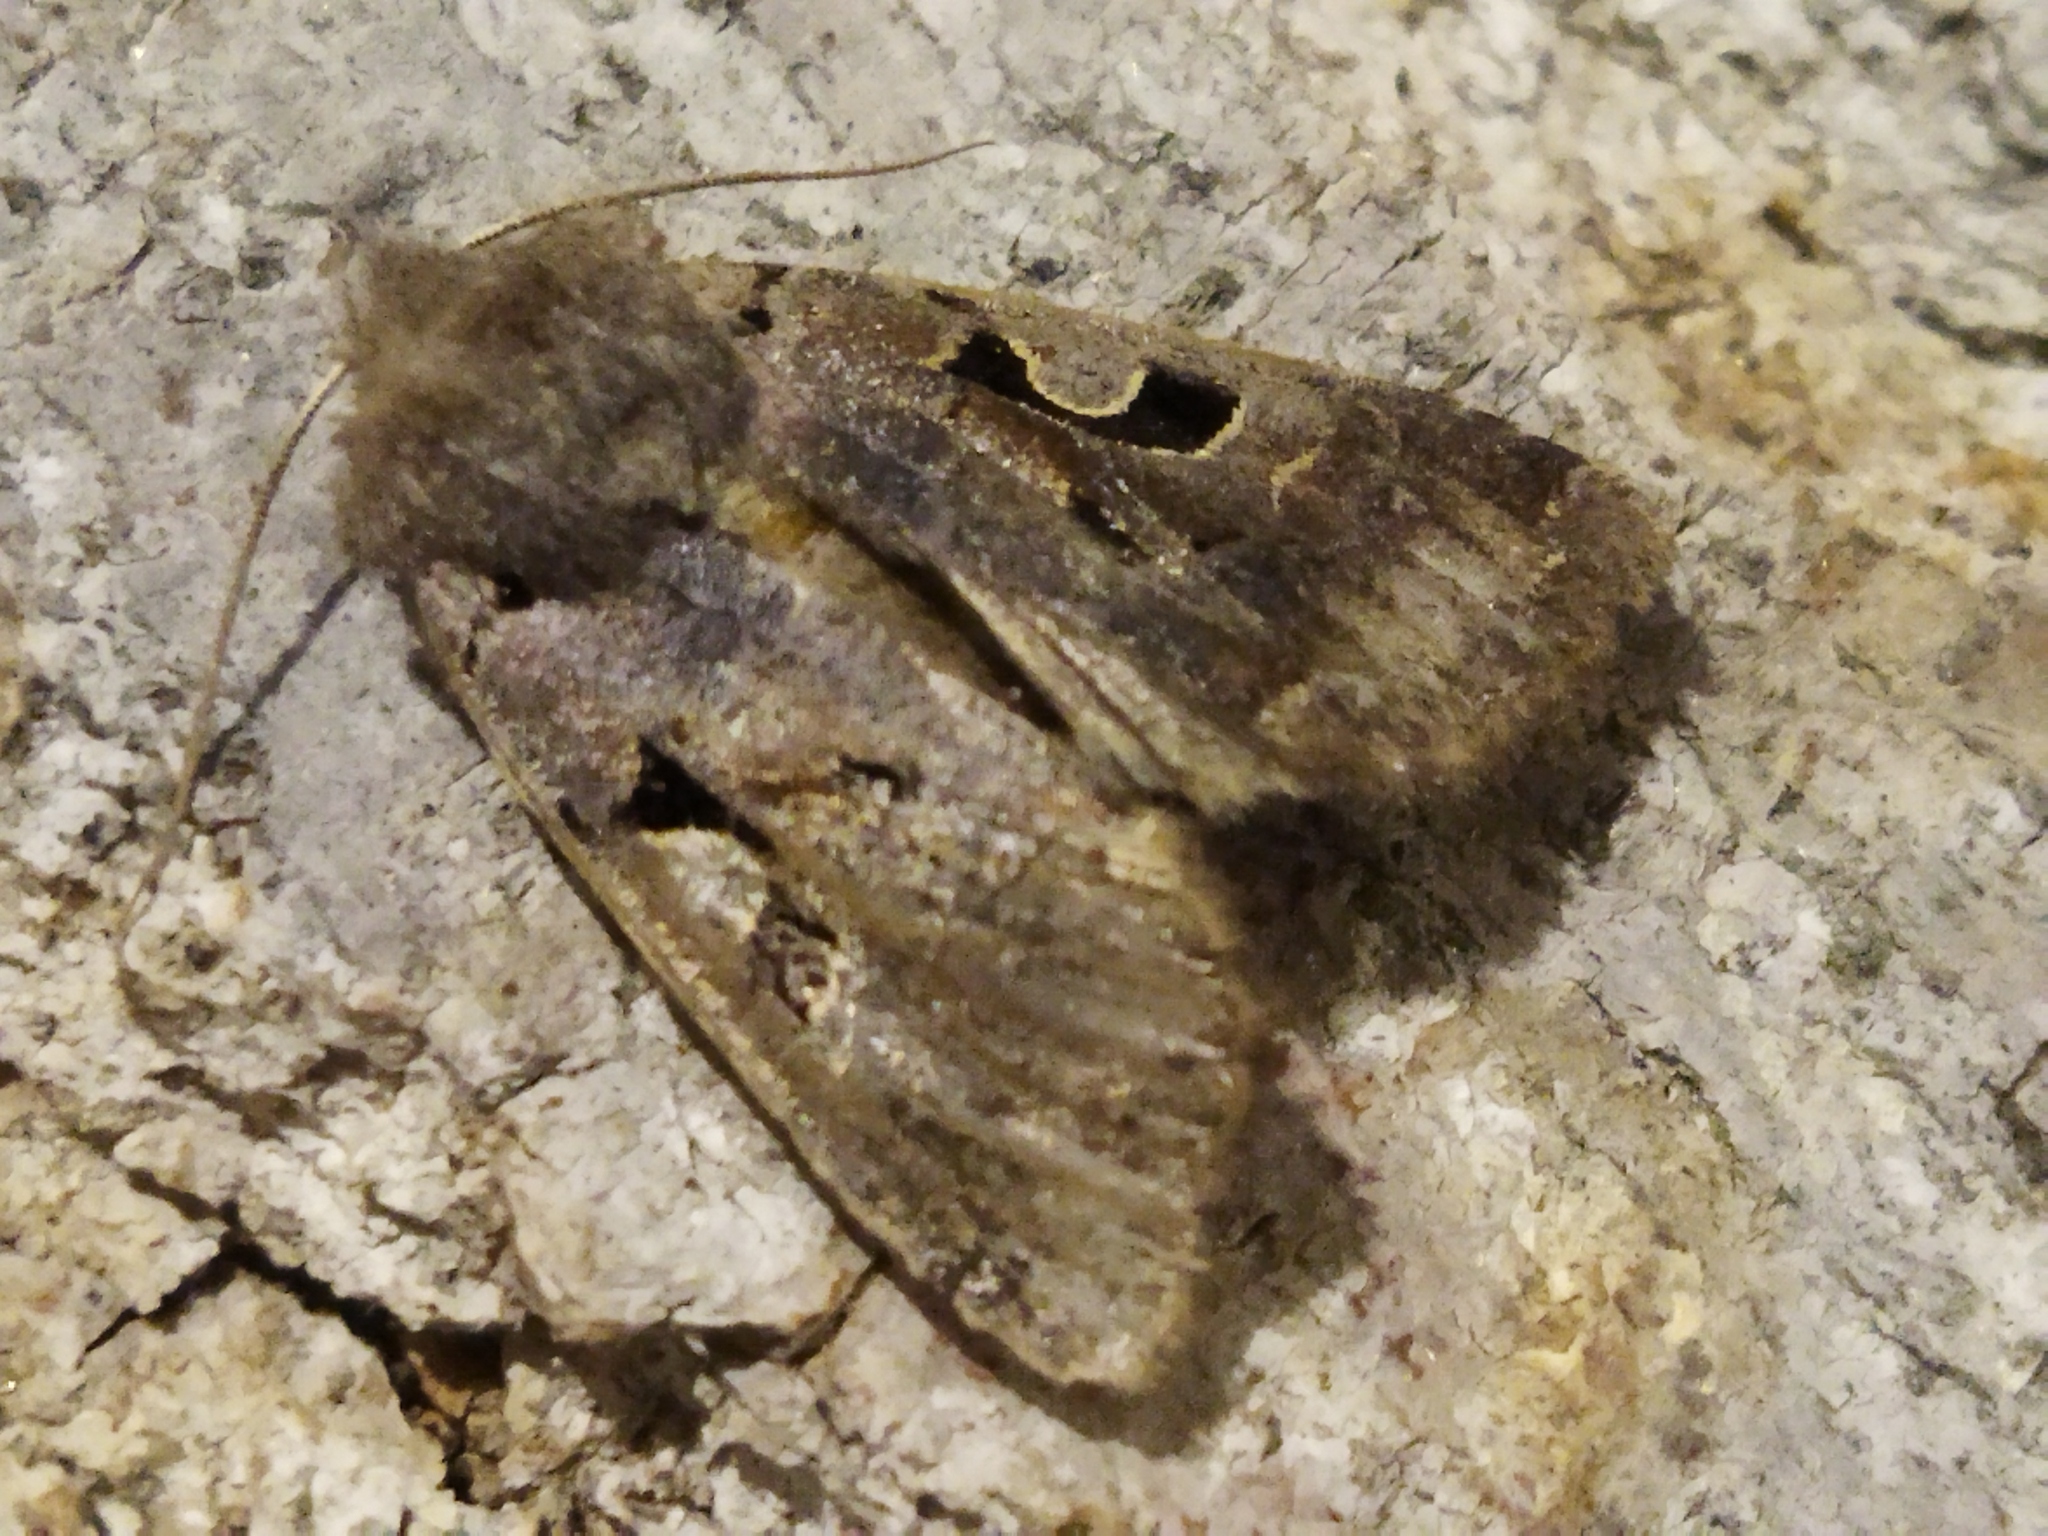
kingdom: Animalia
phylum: Arthropoda
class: Insecta
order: Lepidoptera
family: Noctuidae
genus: Orthosia
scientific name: Orthosia gothica
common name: Hebrew character
